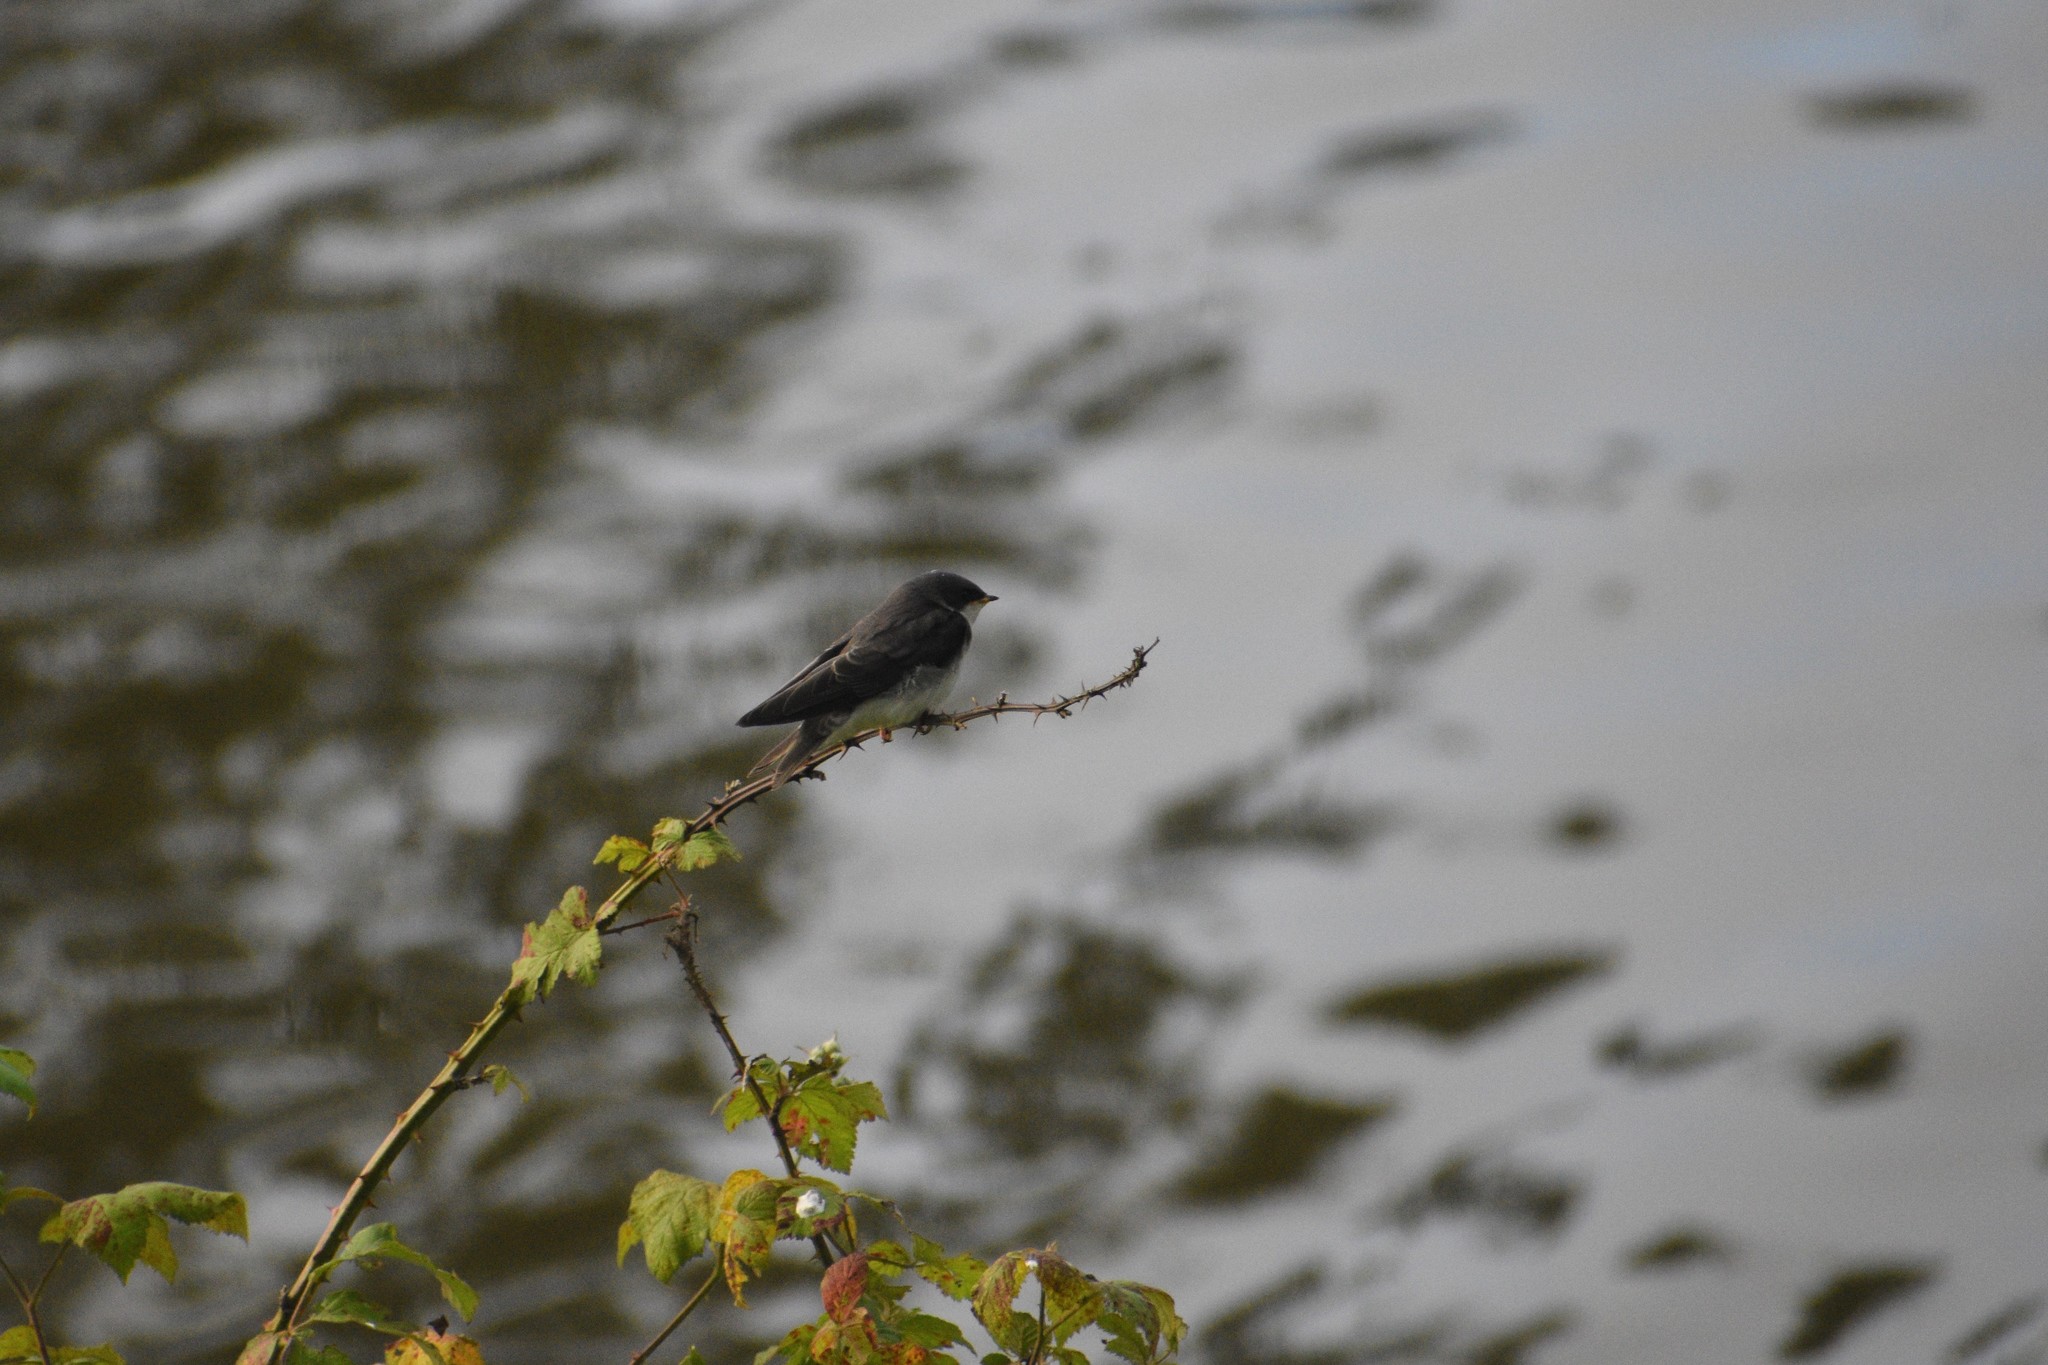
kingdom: Animalia
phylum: Chordata
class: Aves
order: Passeriformes
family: Hirundinidae
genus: Tachycineta
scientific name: Tachycineta bicolor
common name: Tree swallow
